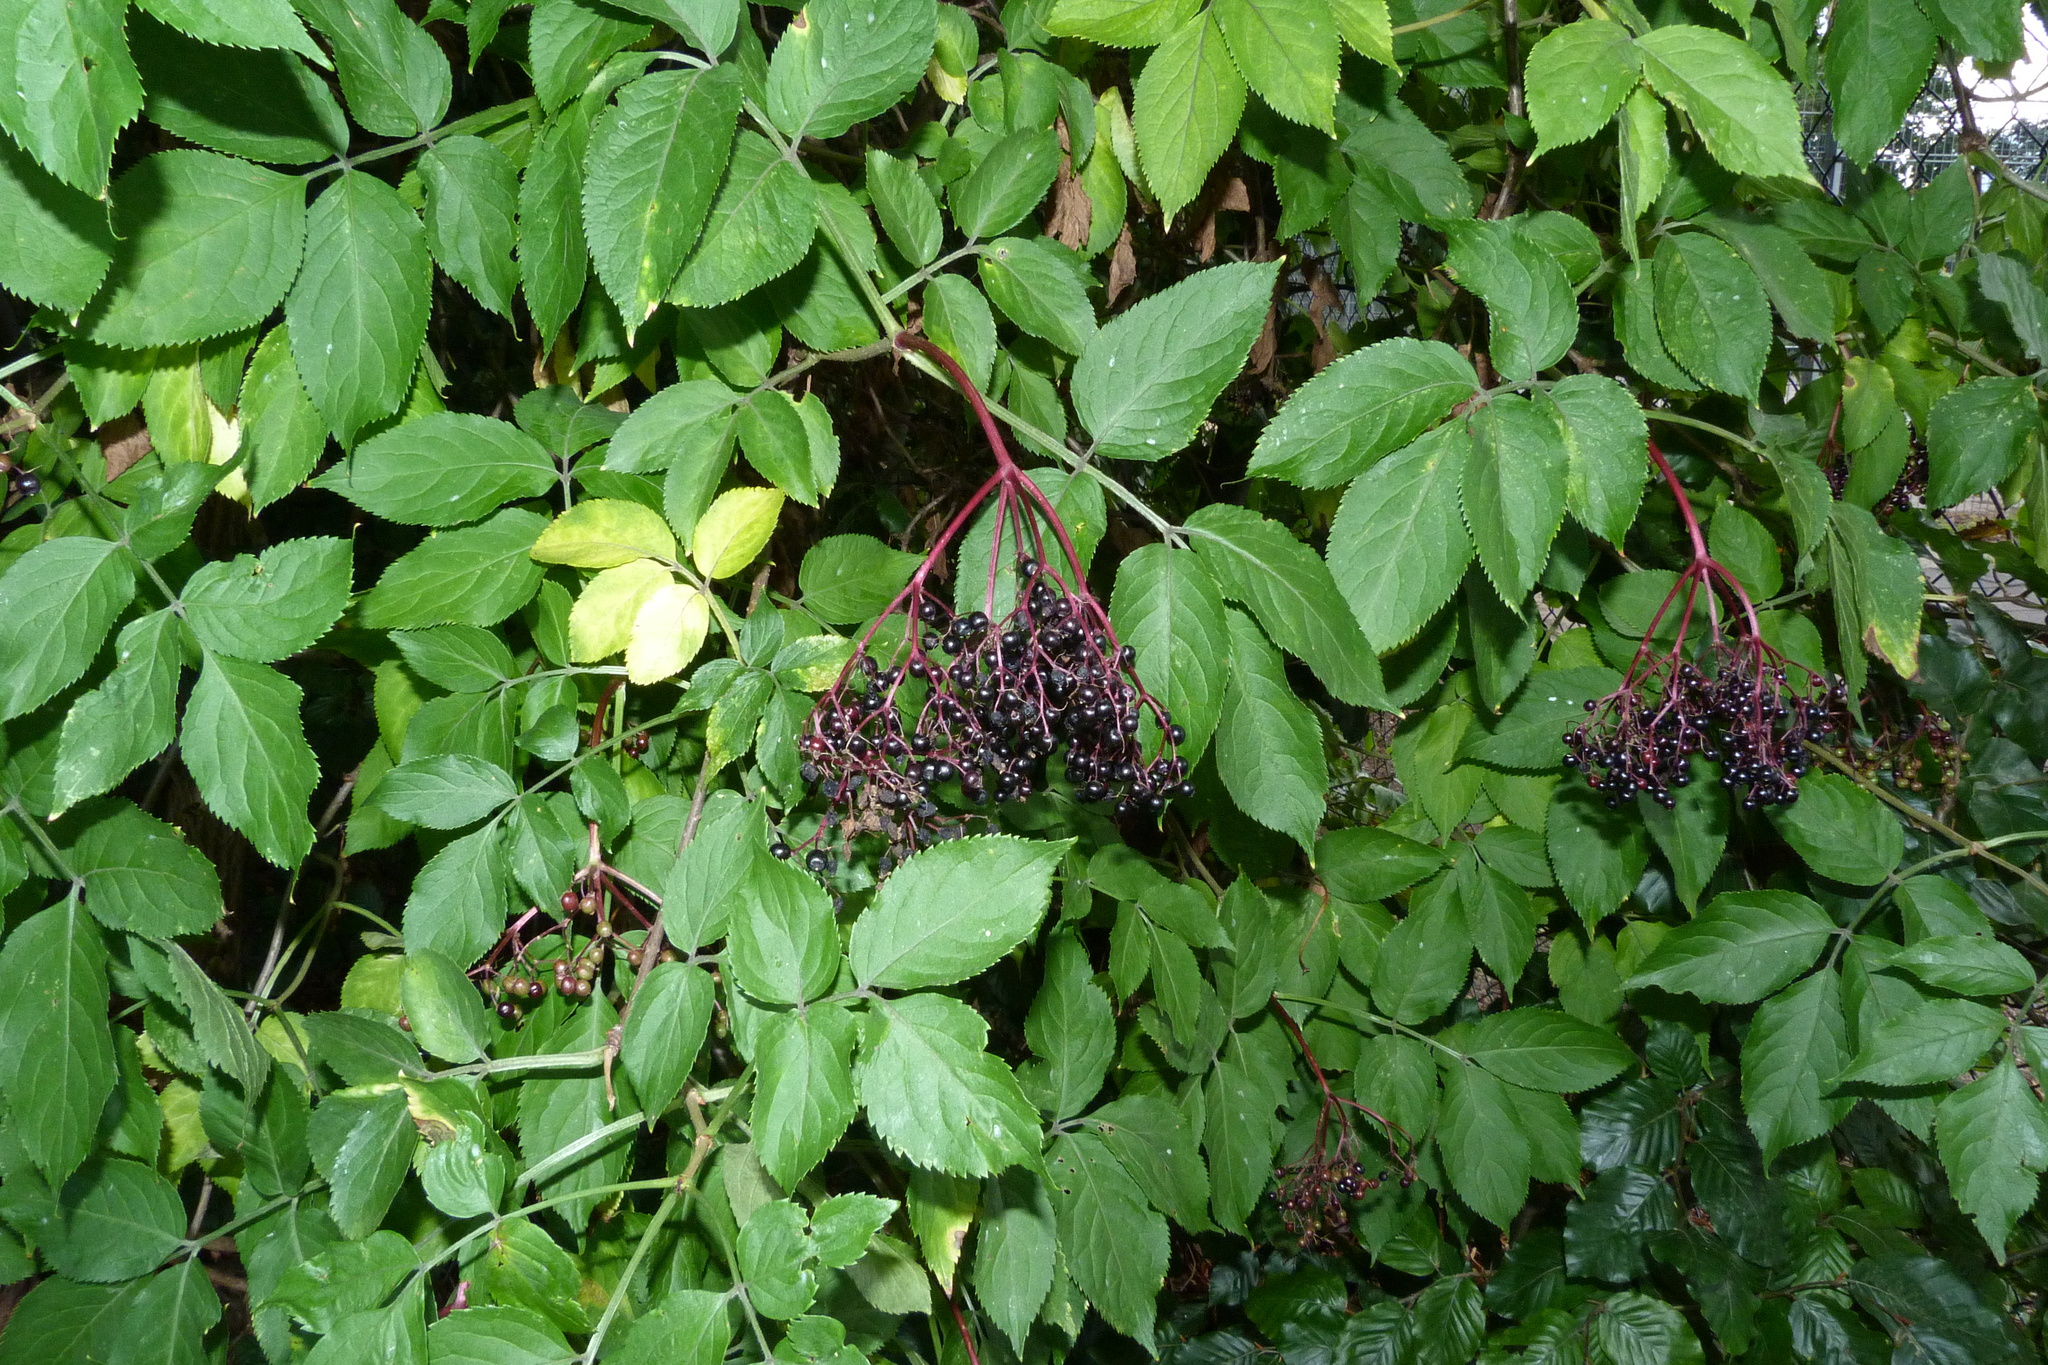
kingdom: Plantae
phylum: Tracheophyta
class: Magnoliopsida
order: Dipsacales
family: Viburnaceae
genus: Sambucus
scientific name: Sambucus nigra
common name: Elder
